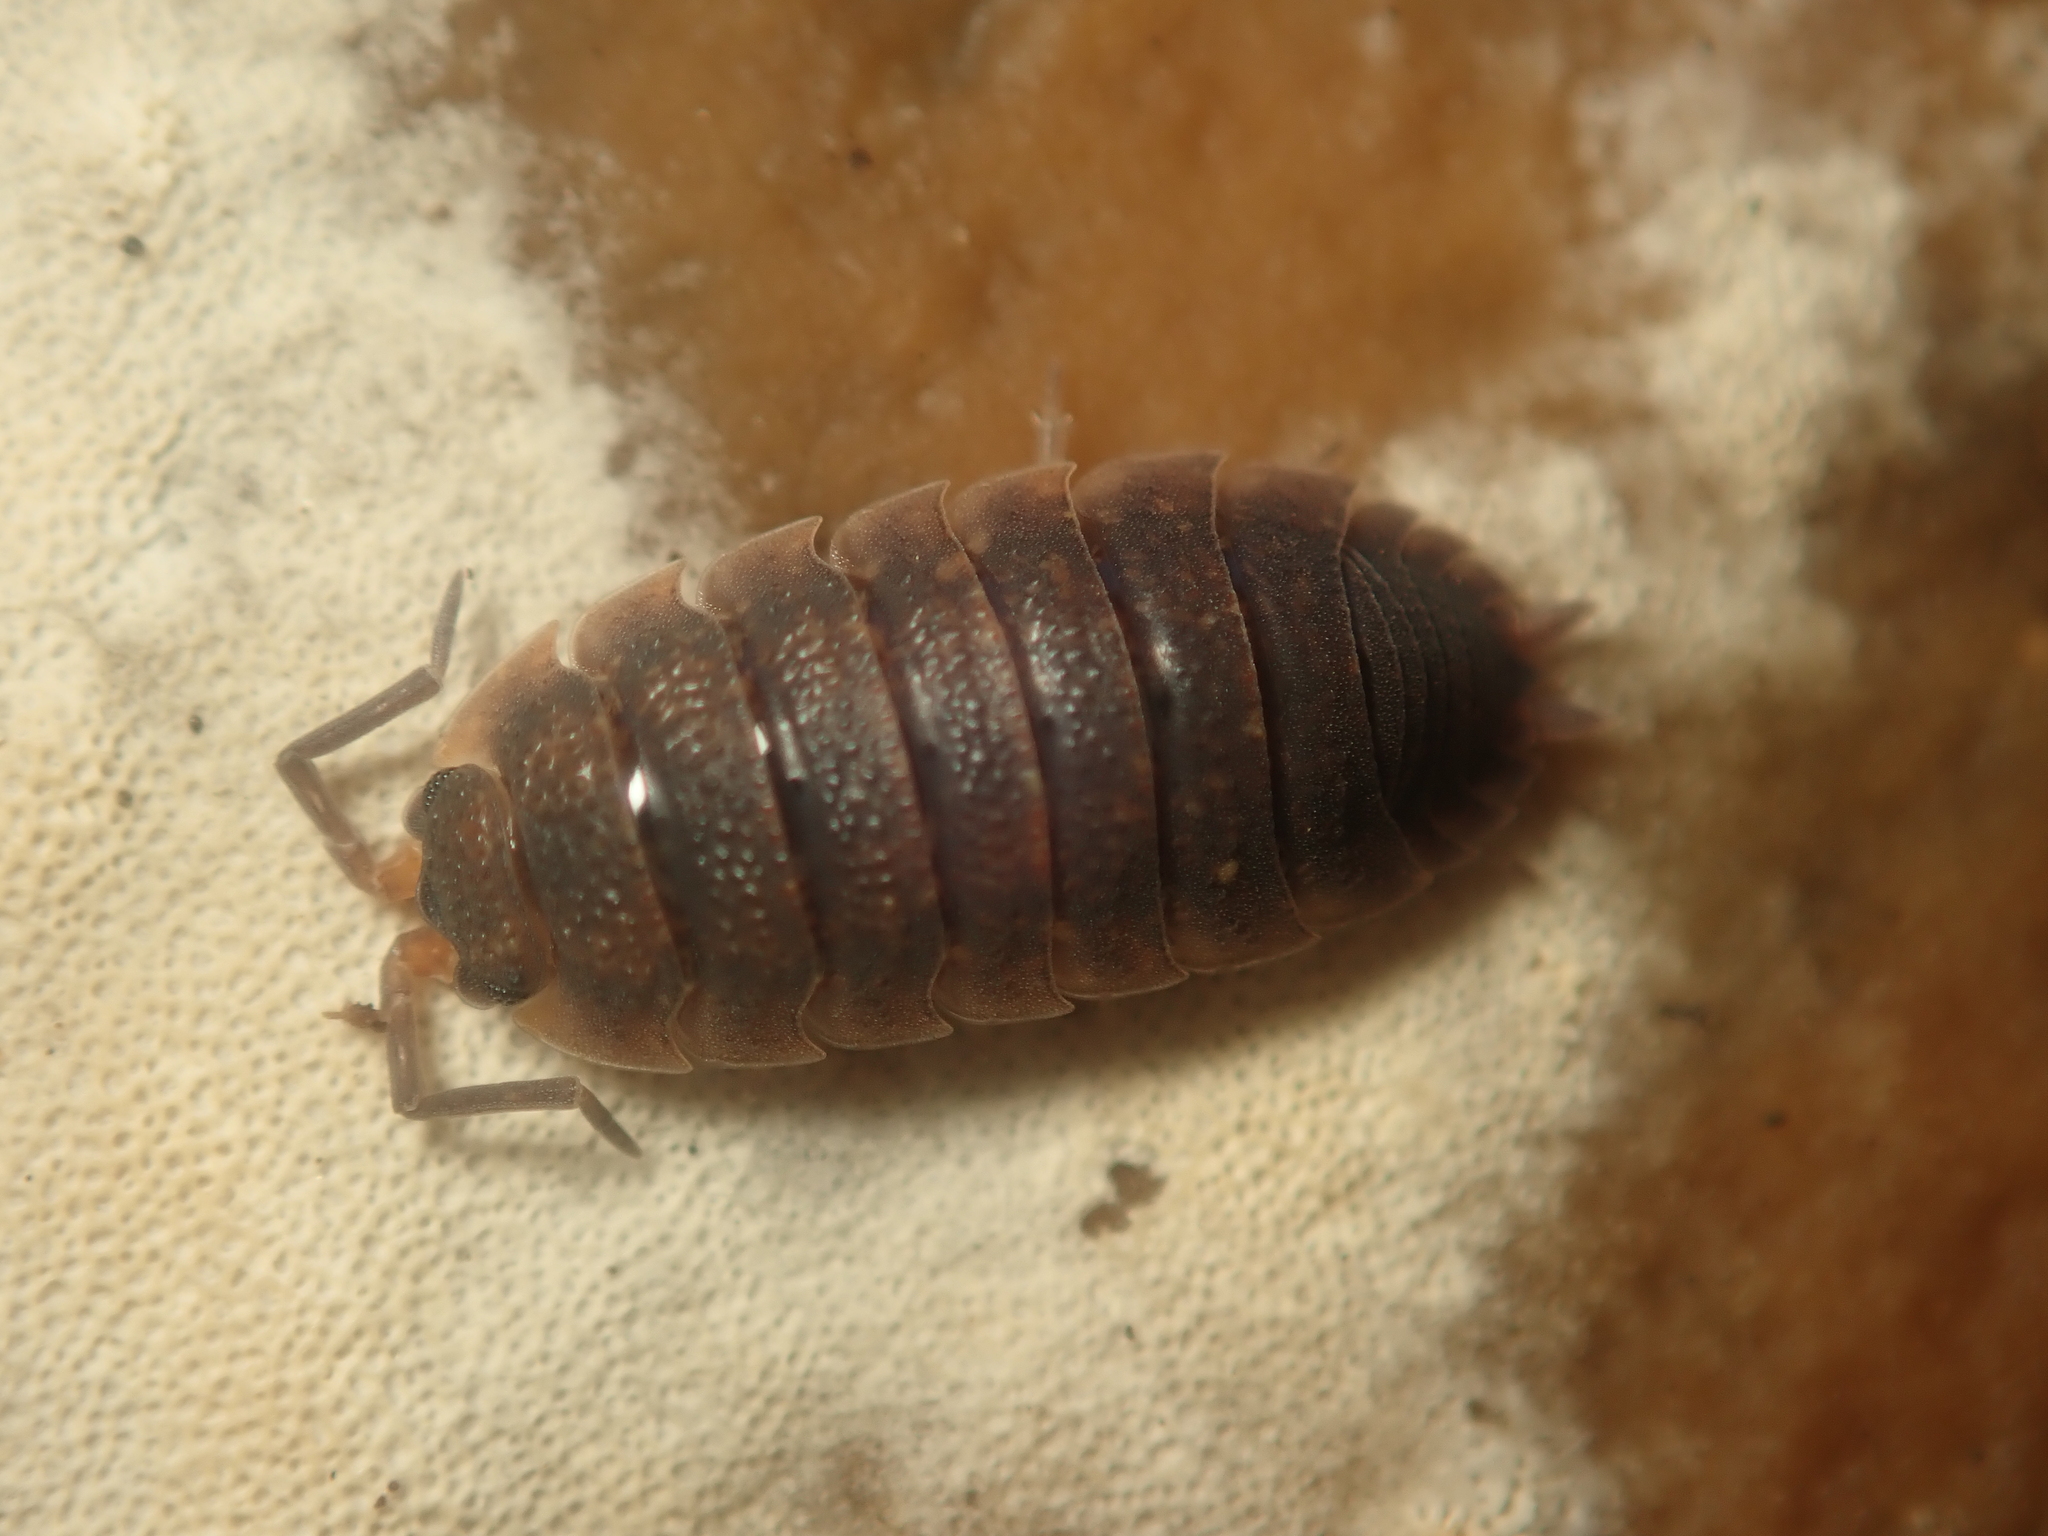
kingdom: Animalia
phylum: Arthropoda
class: Malacostraca
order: Isopoda
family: Porcellionidae
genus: Porcellio
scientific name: Porcellio scaber
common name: Common rough woodlouse
